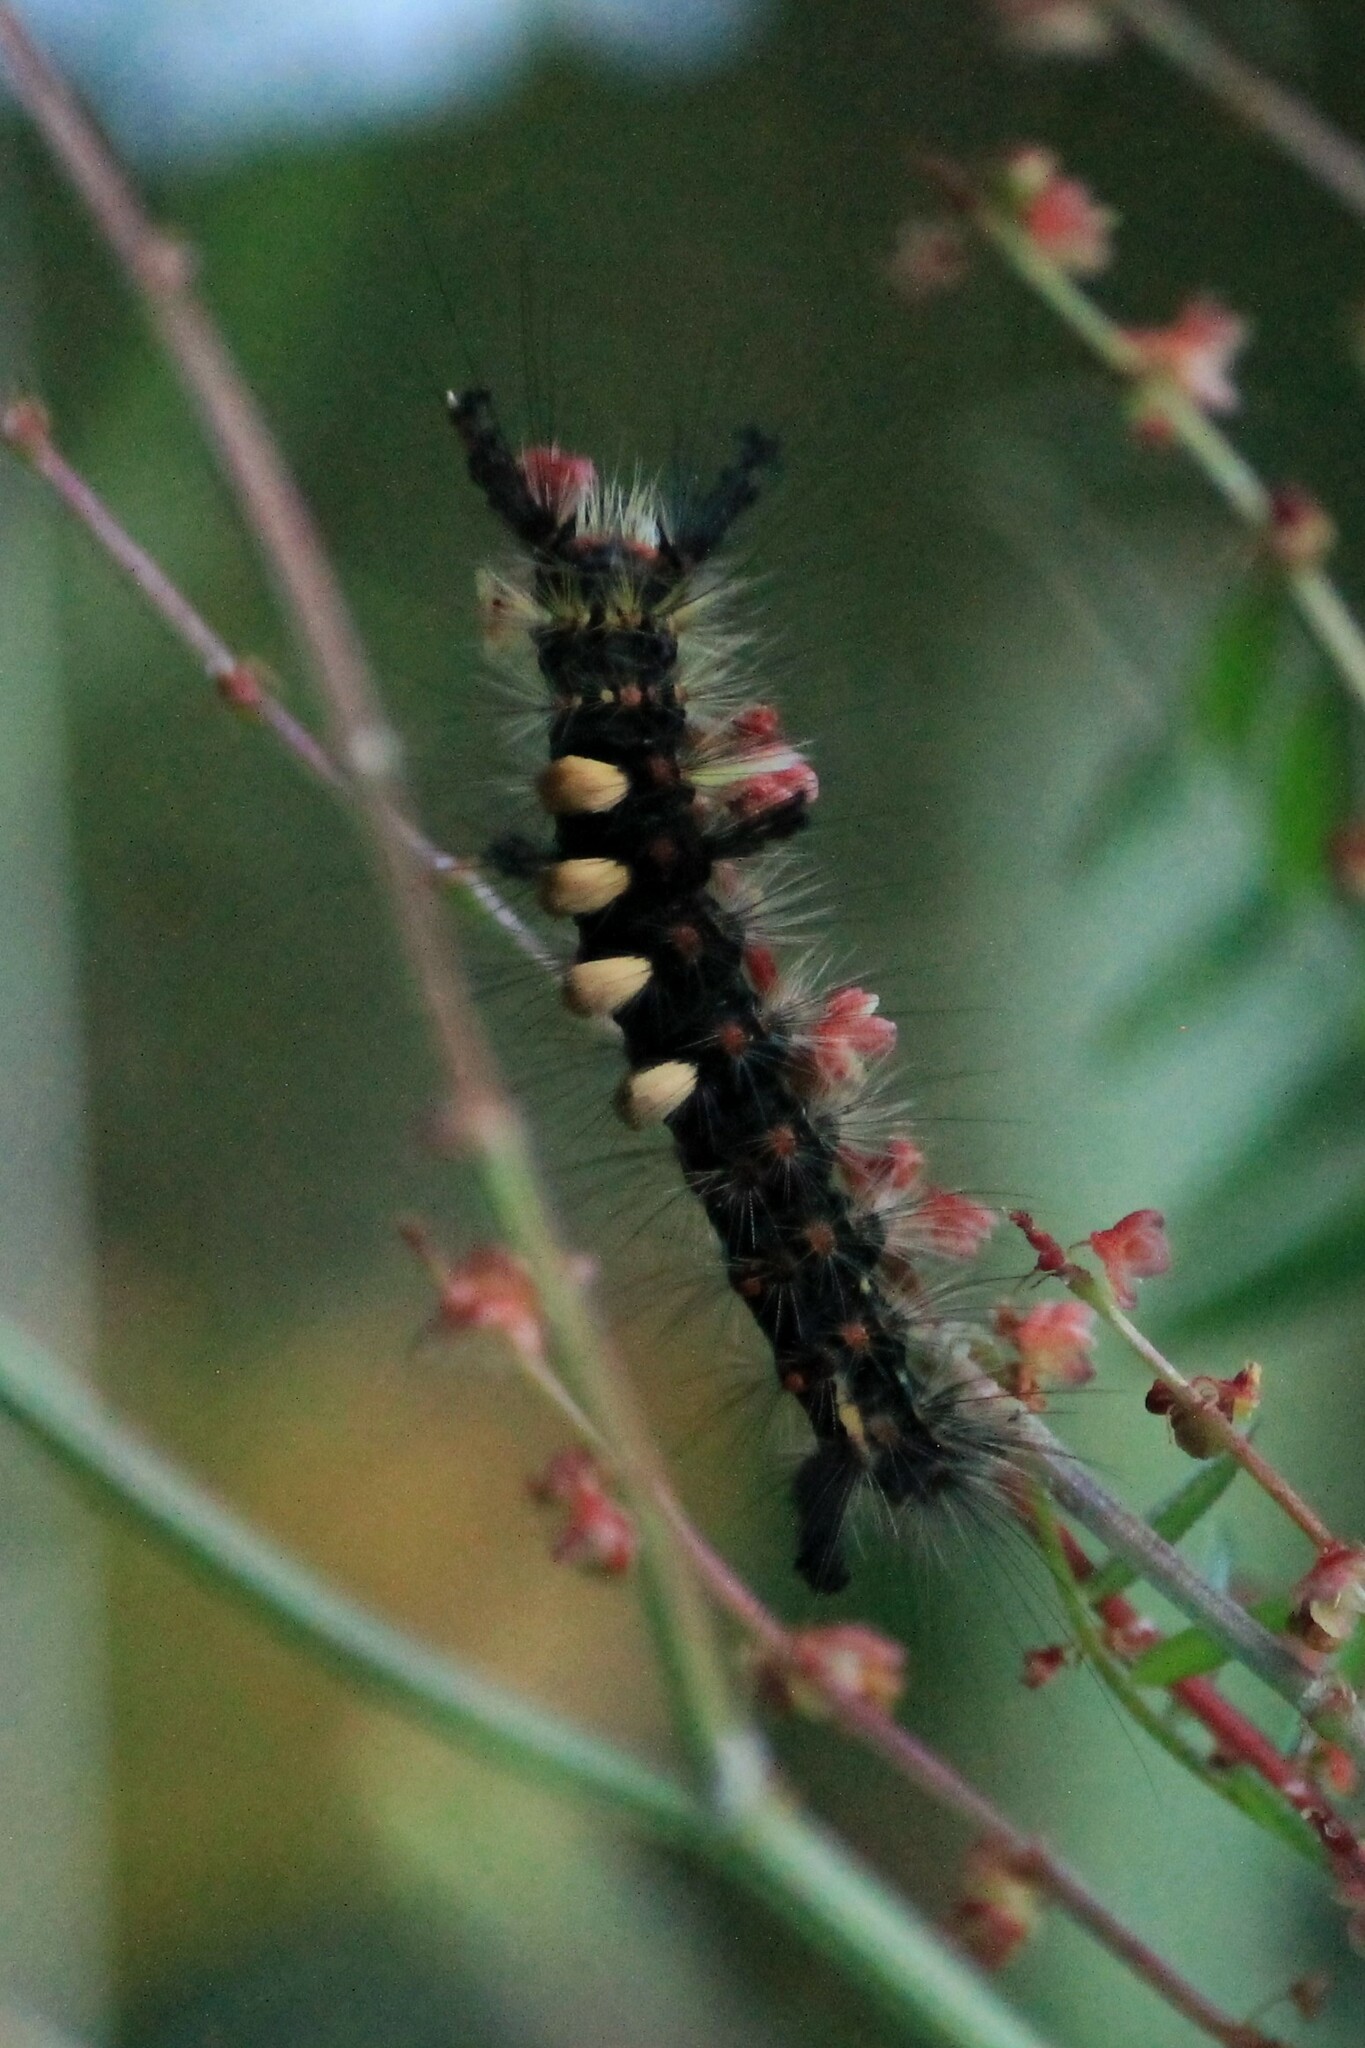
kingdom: Animalia
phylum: Arthropoda
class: Insecta
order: Lepidoptera
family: Erebidae
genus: Orgyia
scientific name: Orgyia antiqua
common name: Vapourer
